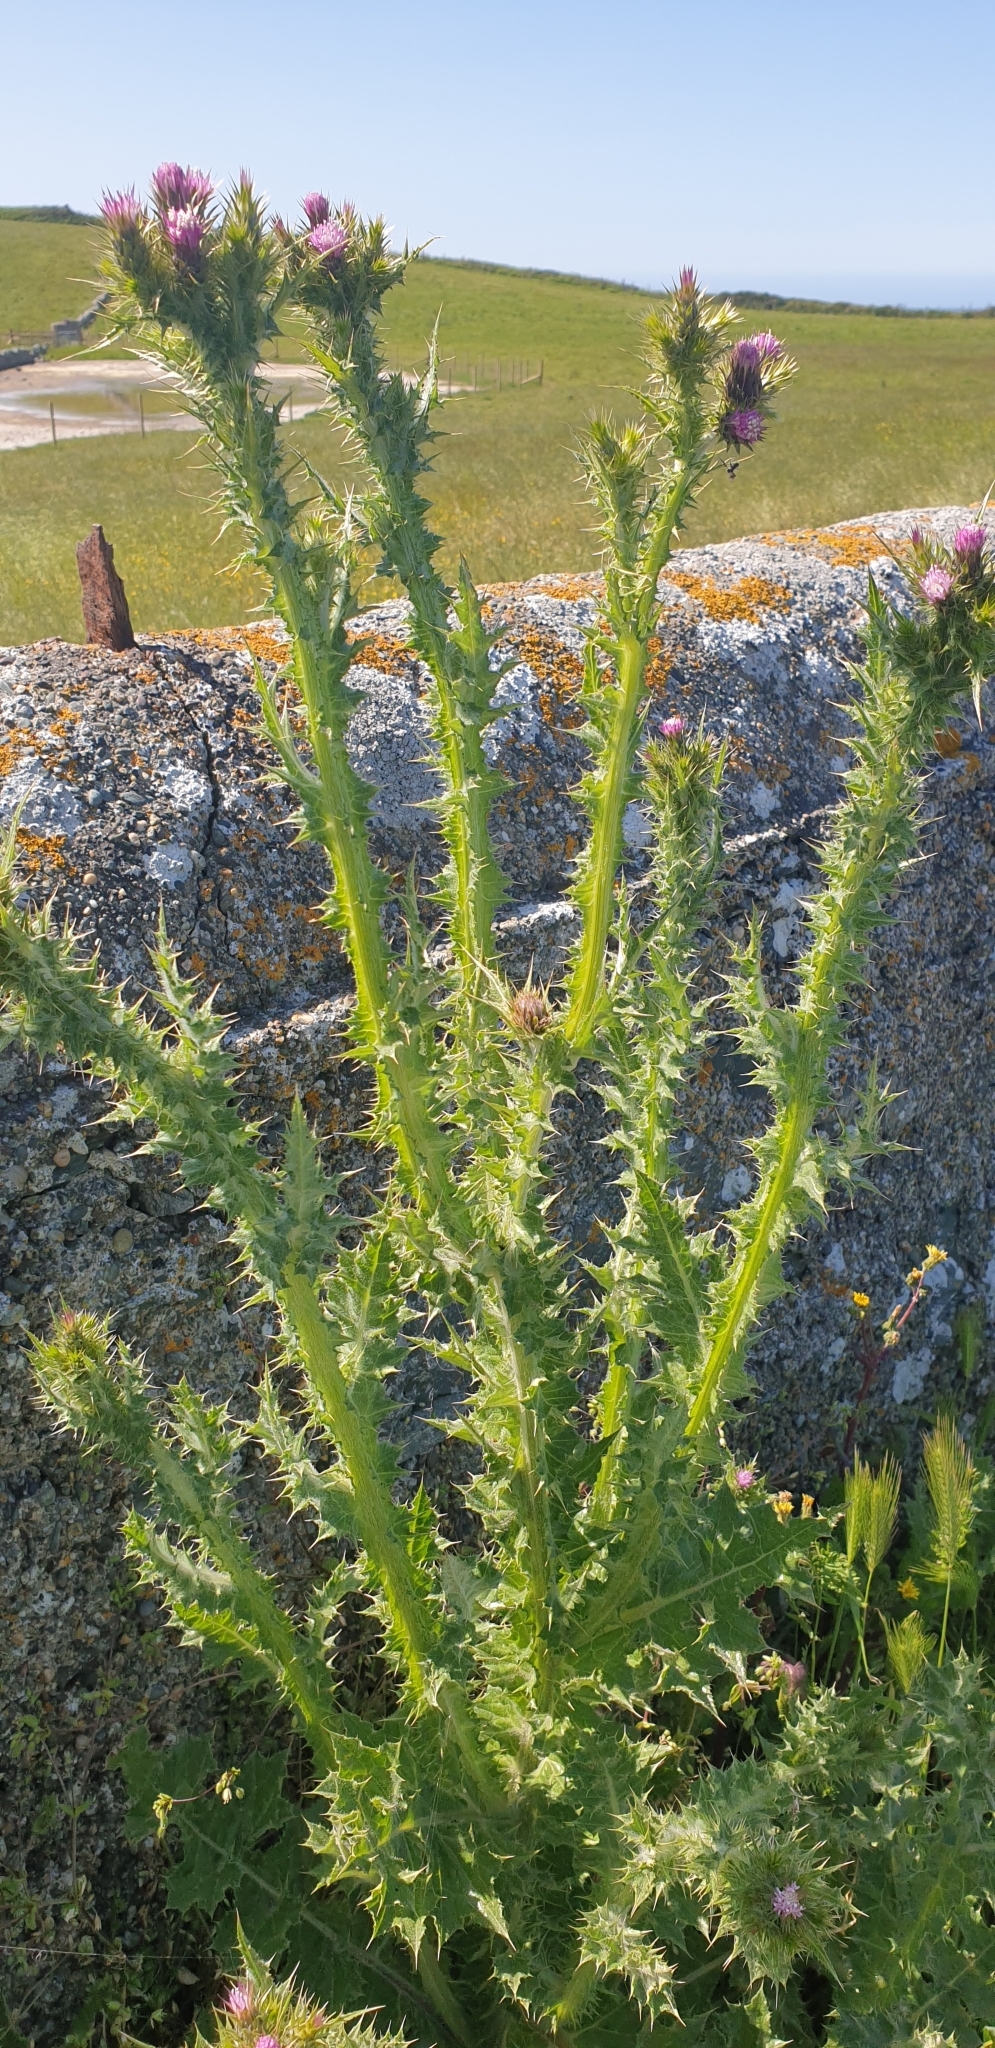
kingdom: Plantae
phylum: Tracheophyta
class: Magnoliopsida
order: Asterales
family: Asteraceae
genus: Cirsium
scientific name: Cirsium palustre
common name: Marsh thistle
